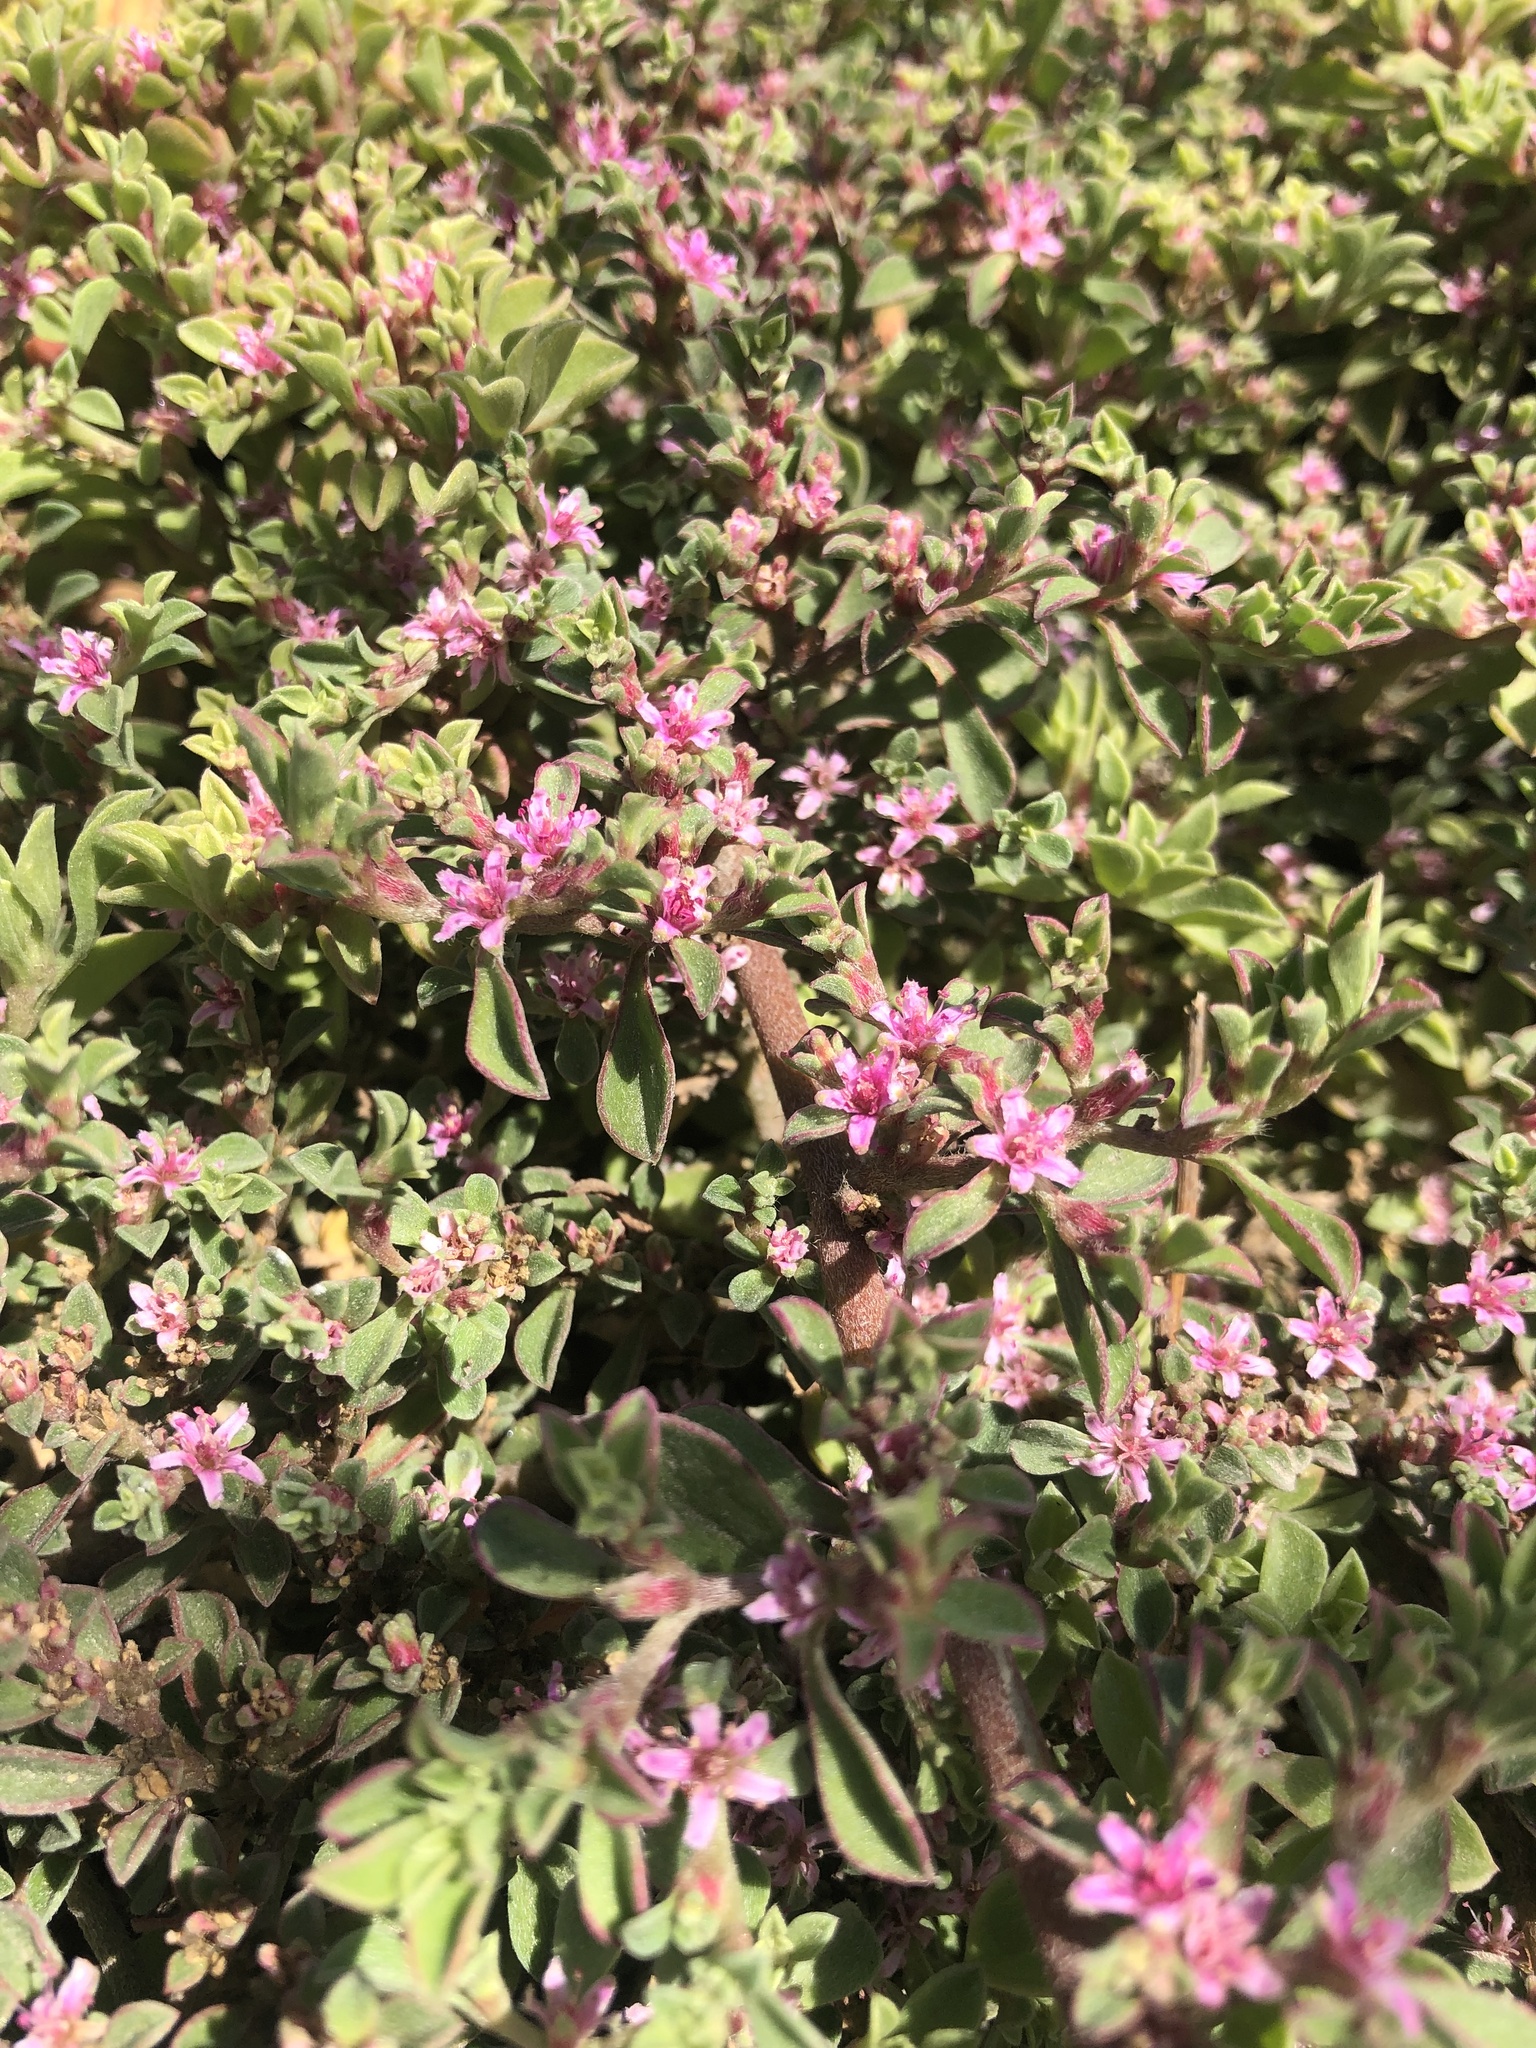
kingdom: Plantae
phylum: Tracheophyta
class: Magnoliopsida
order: Caryophyllales
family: Aizoaceae
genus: Aizoon
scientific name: Aizoon pubescens
